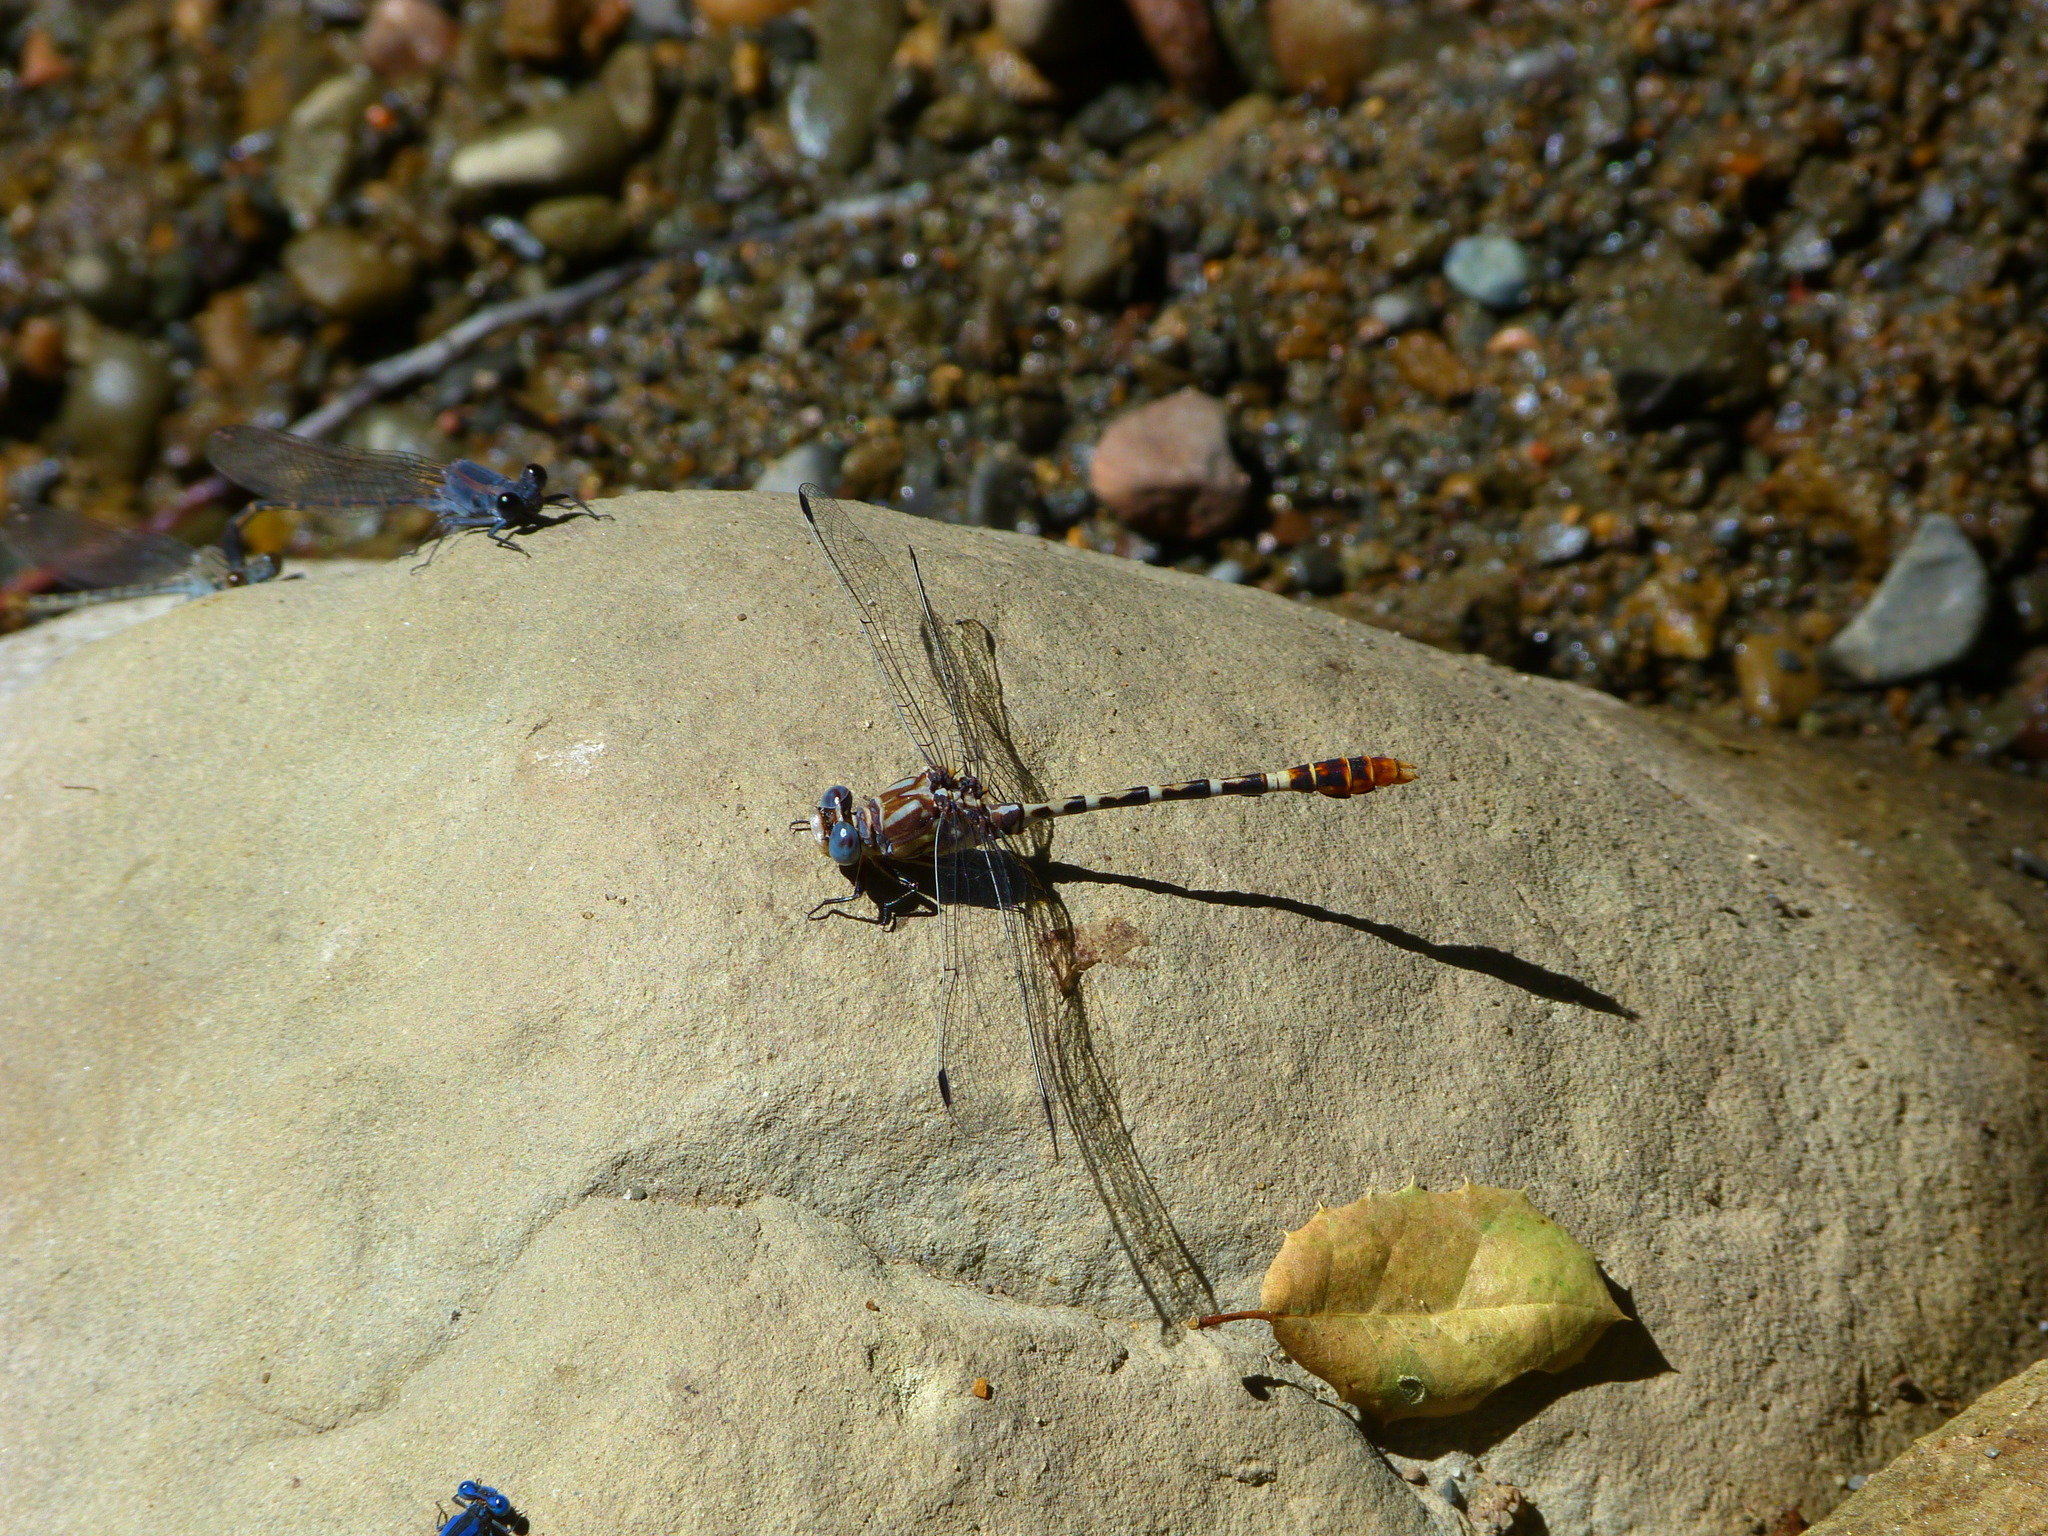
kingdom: Animalia
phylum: Arthropoda
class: Insecta
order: Odonata
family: Gomphidae
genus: Erpetogomphus
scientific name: Erpetogomphus lampropeltis
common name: Serpent ringtail
